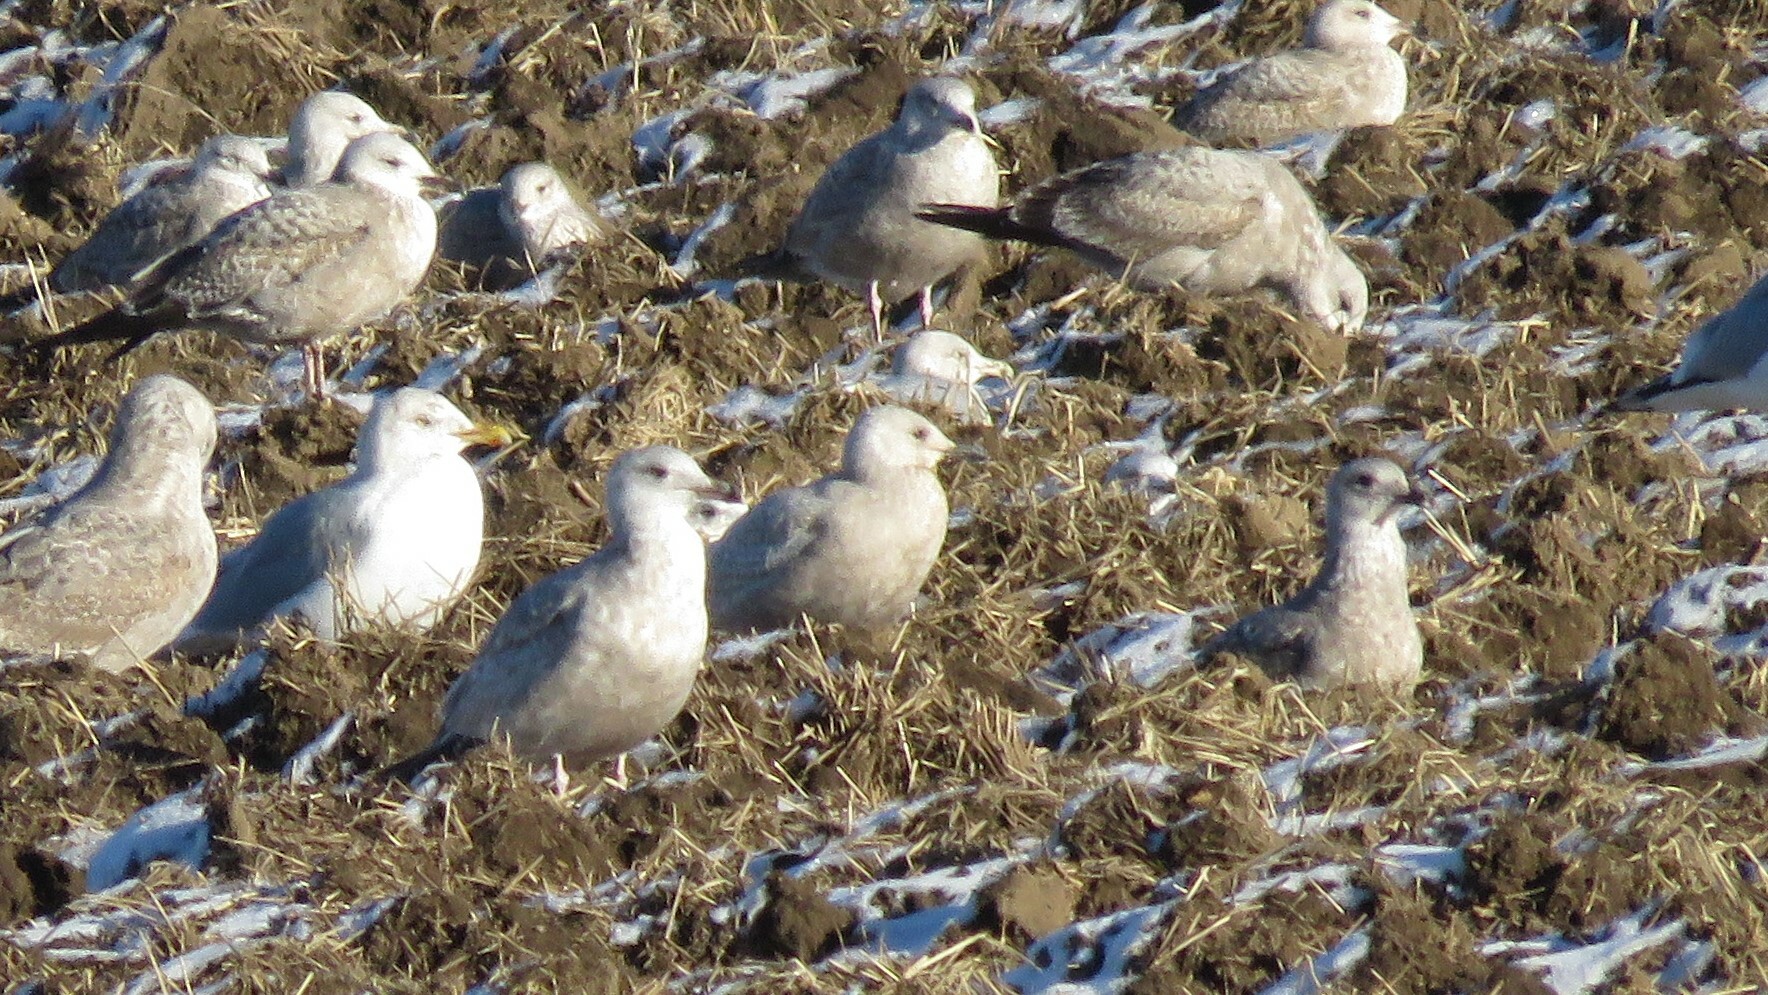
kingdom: Animalia
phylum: Chordata
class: Aves
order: Charadriiformes
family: Laridae
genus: Larus
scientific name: Larus glaucoides
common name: Iceland gull
